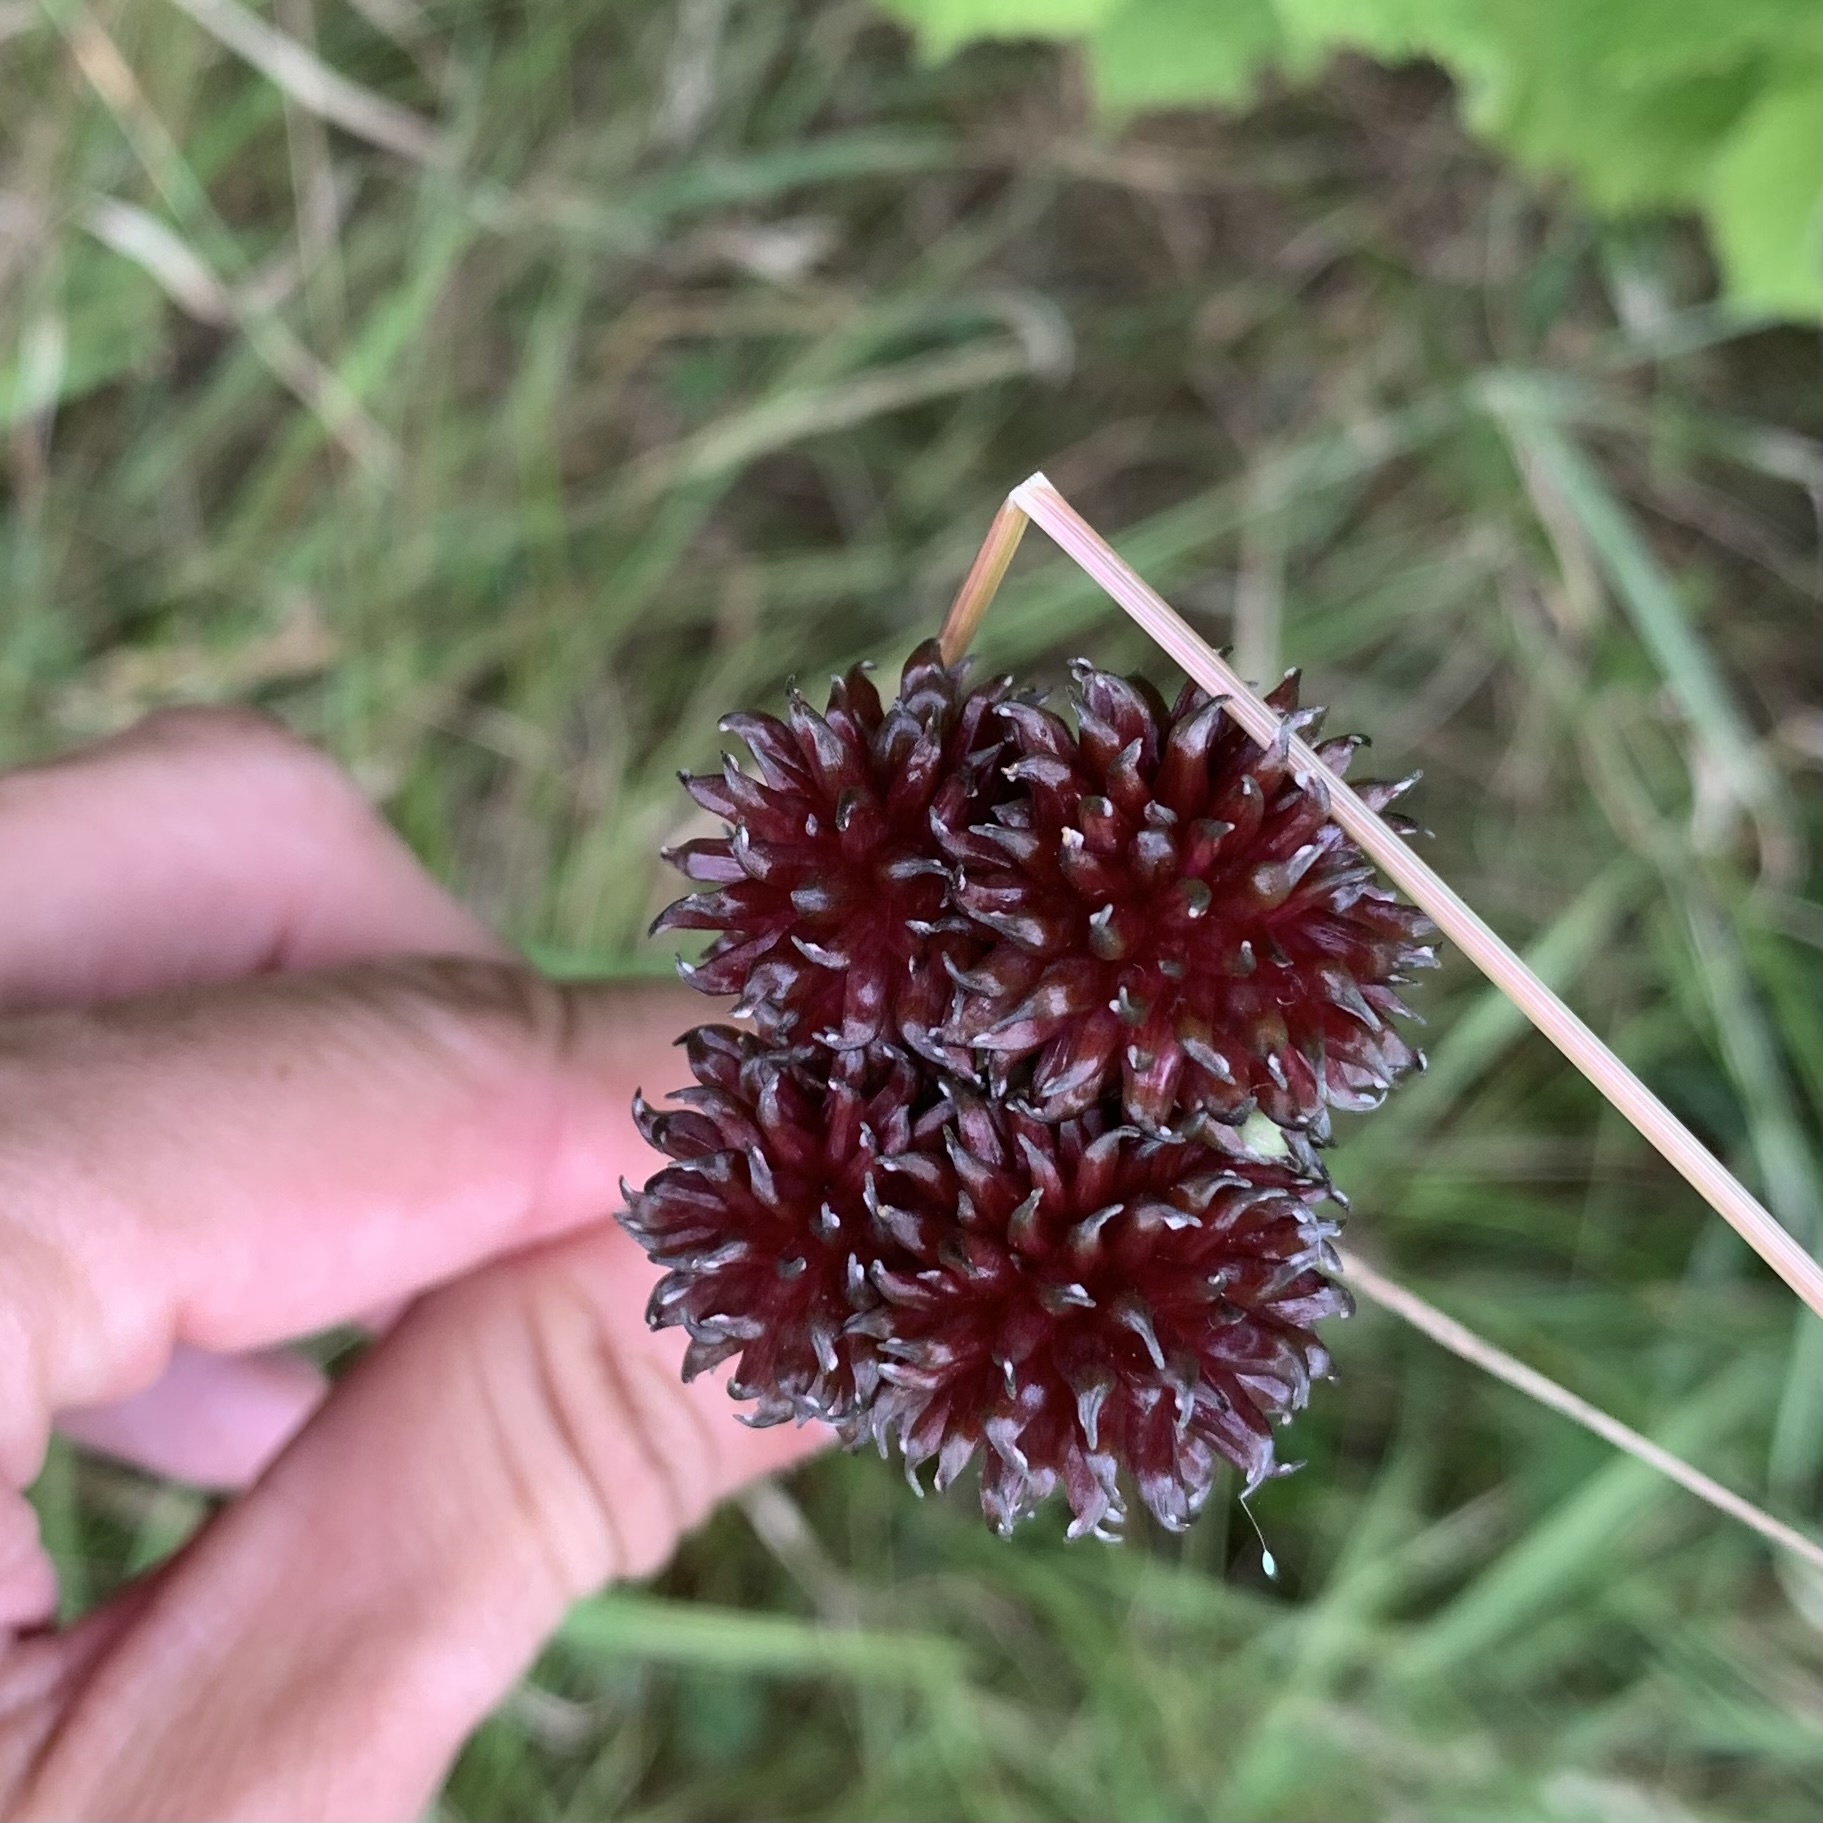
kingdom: Plantae
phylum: Tracheophyta
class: Liliopsida
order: Asparagales
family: Amaryllidaceae
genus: Allium
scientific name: Allium vineale
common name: Crow garlic
